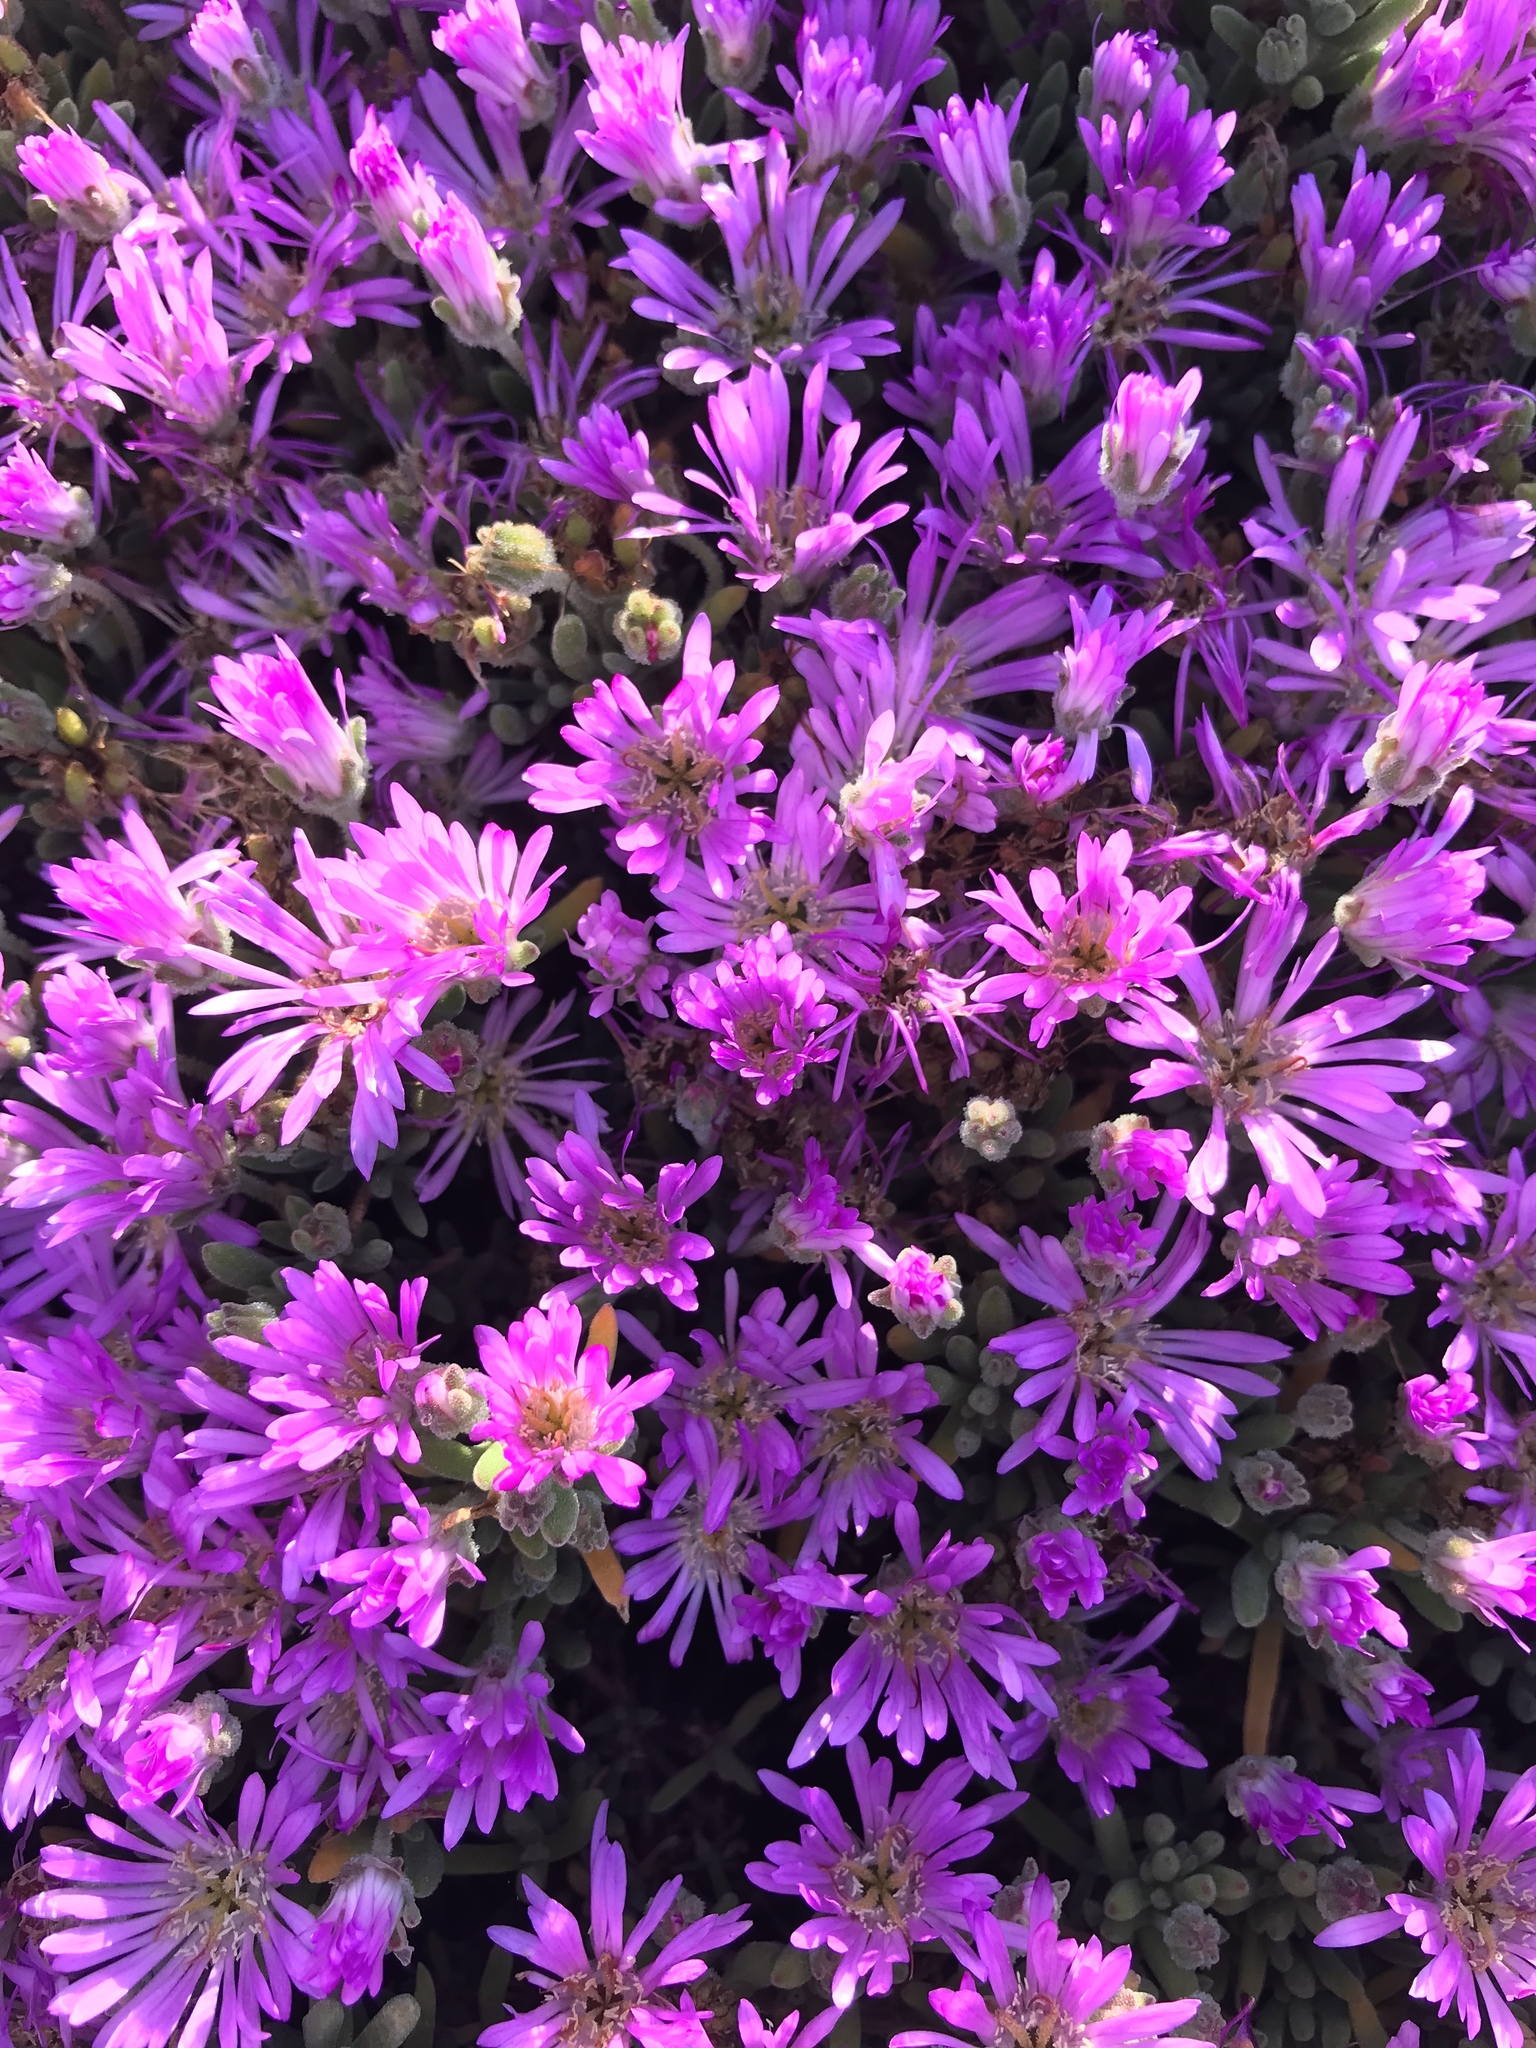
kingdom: Plantae
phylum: Tracheophyta
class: Magnoliopsida
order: Caryophyllales
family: Aizoaceae
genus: Drosanthemum
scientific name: Drosanthemum floribundum
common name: Pale dewplant
